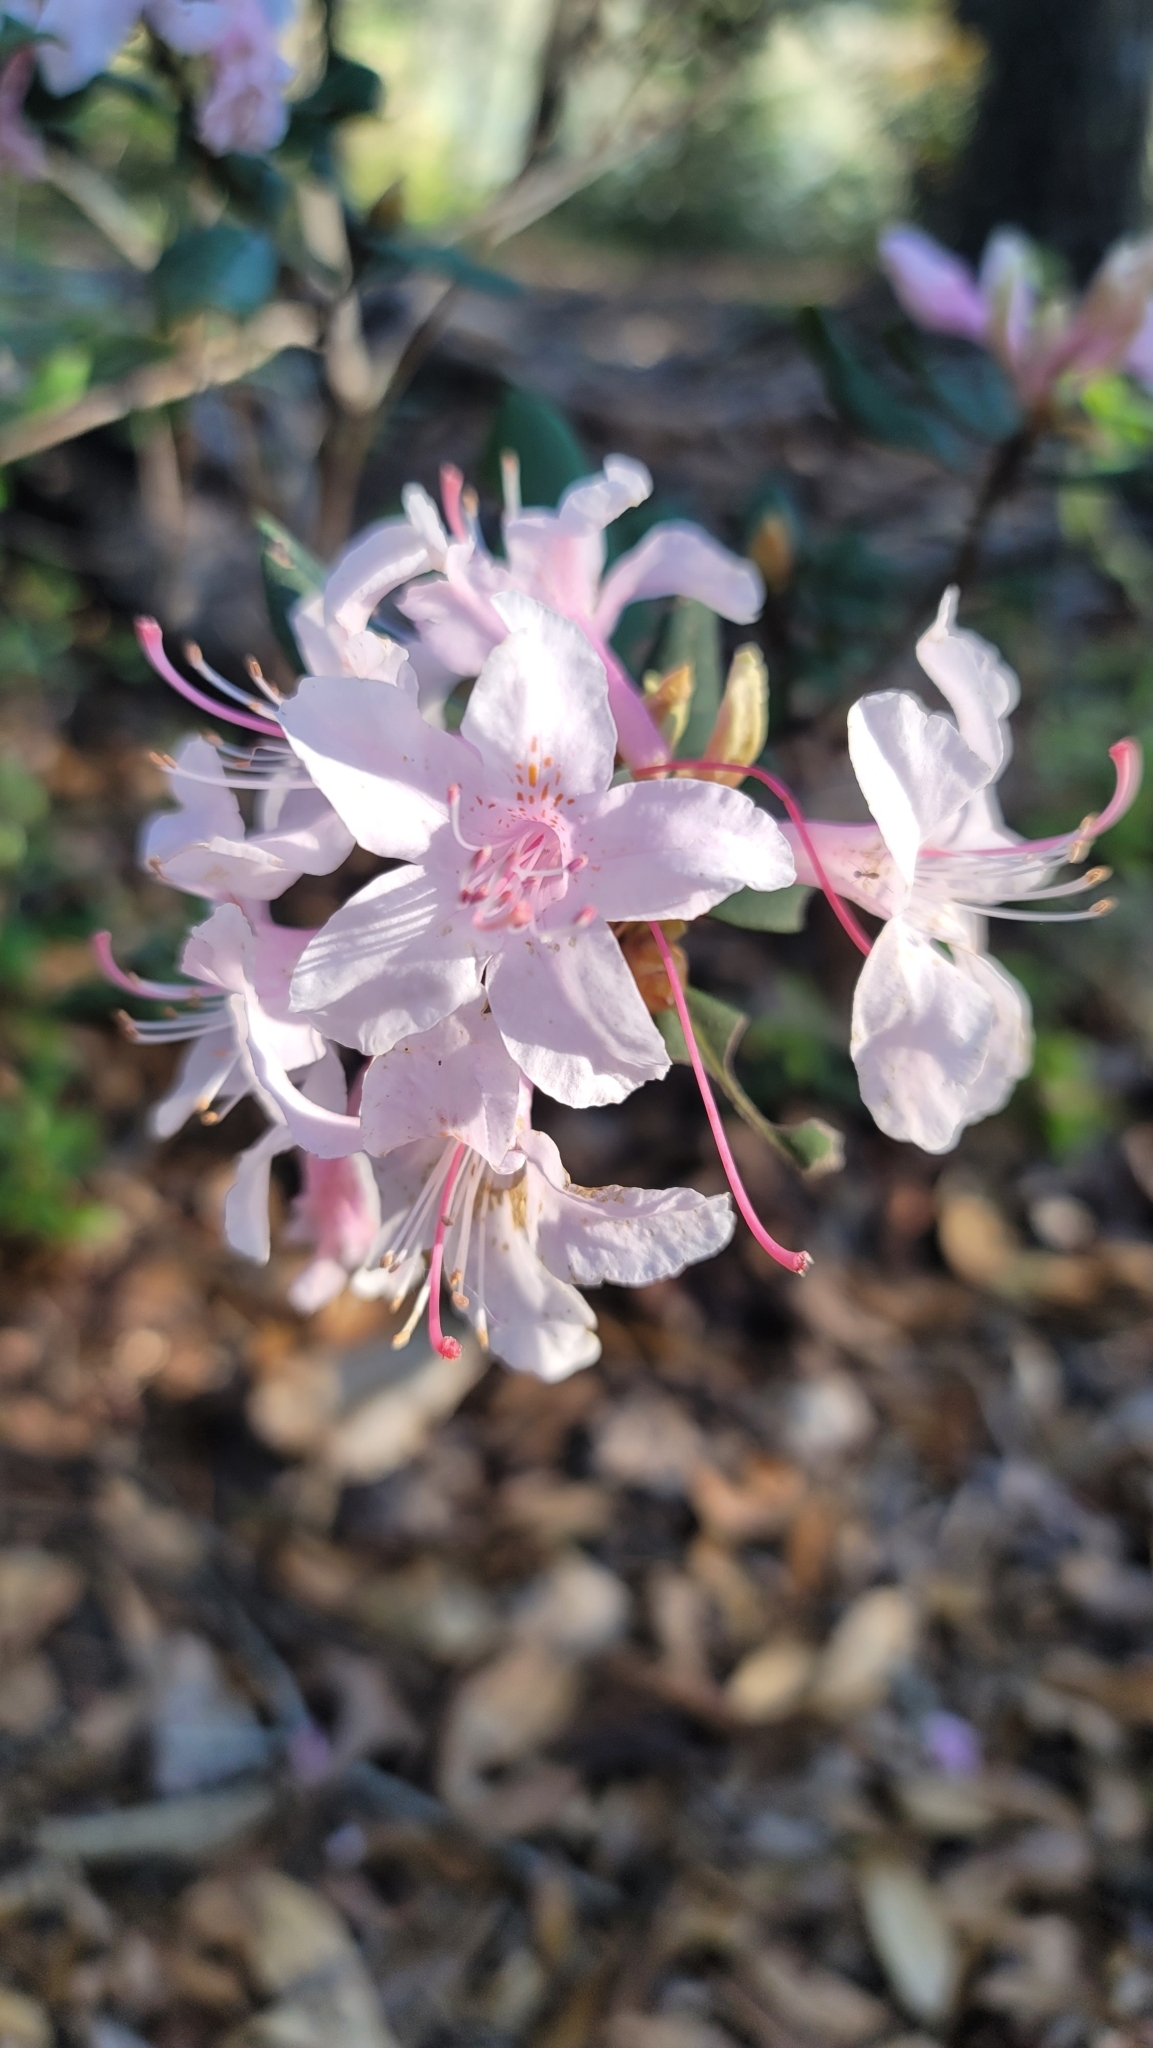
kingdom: Plantae
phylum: Tracheophyta
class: Magnoliopsida
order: Ericales
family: Ericaceae
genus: Rhododendron
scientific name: Rhododendron minus
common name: Piedmont rhododendron
